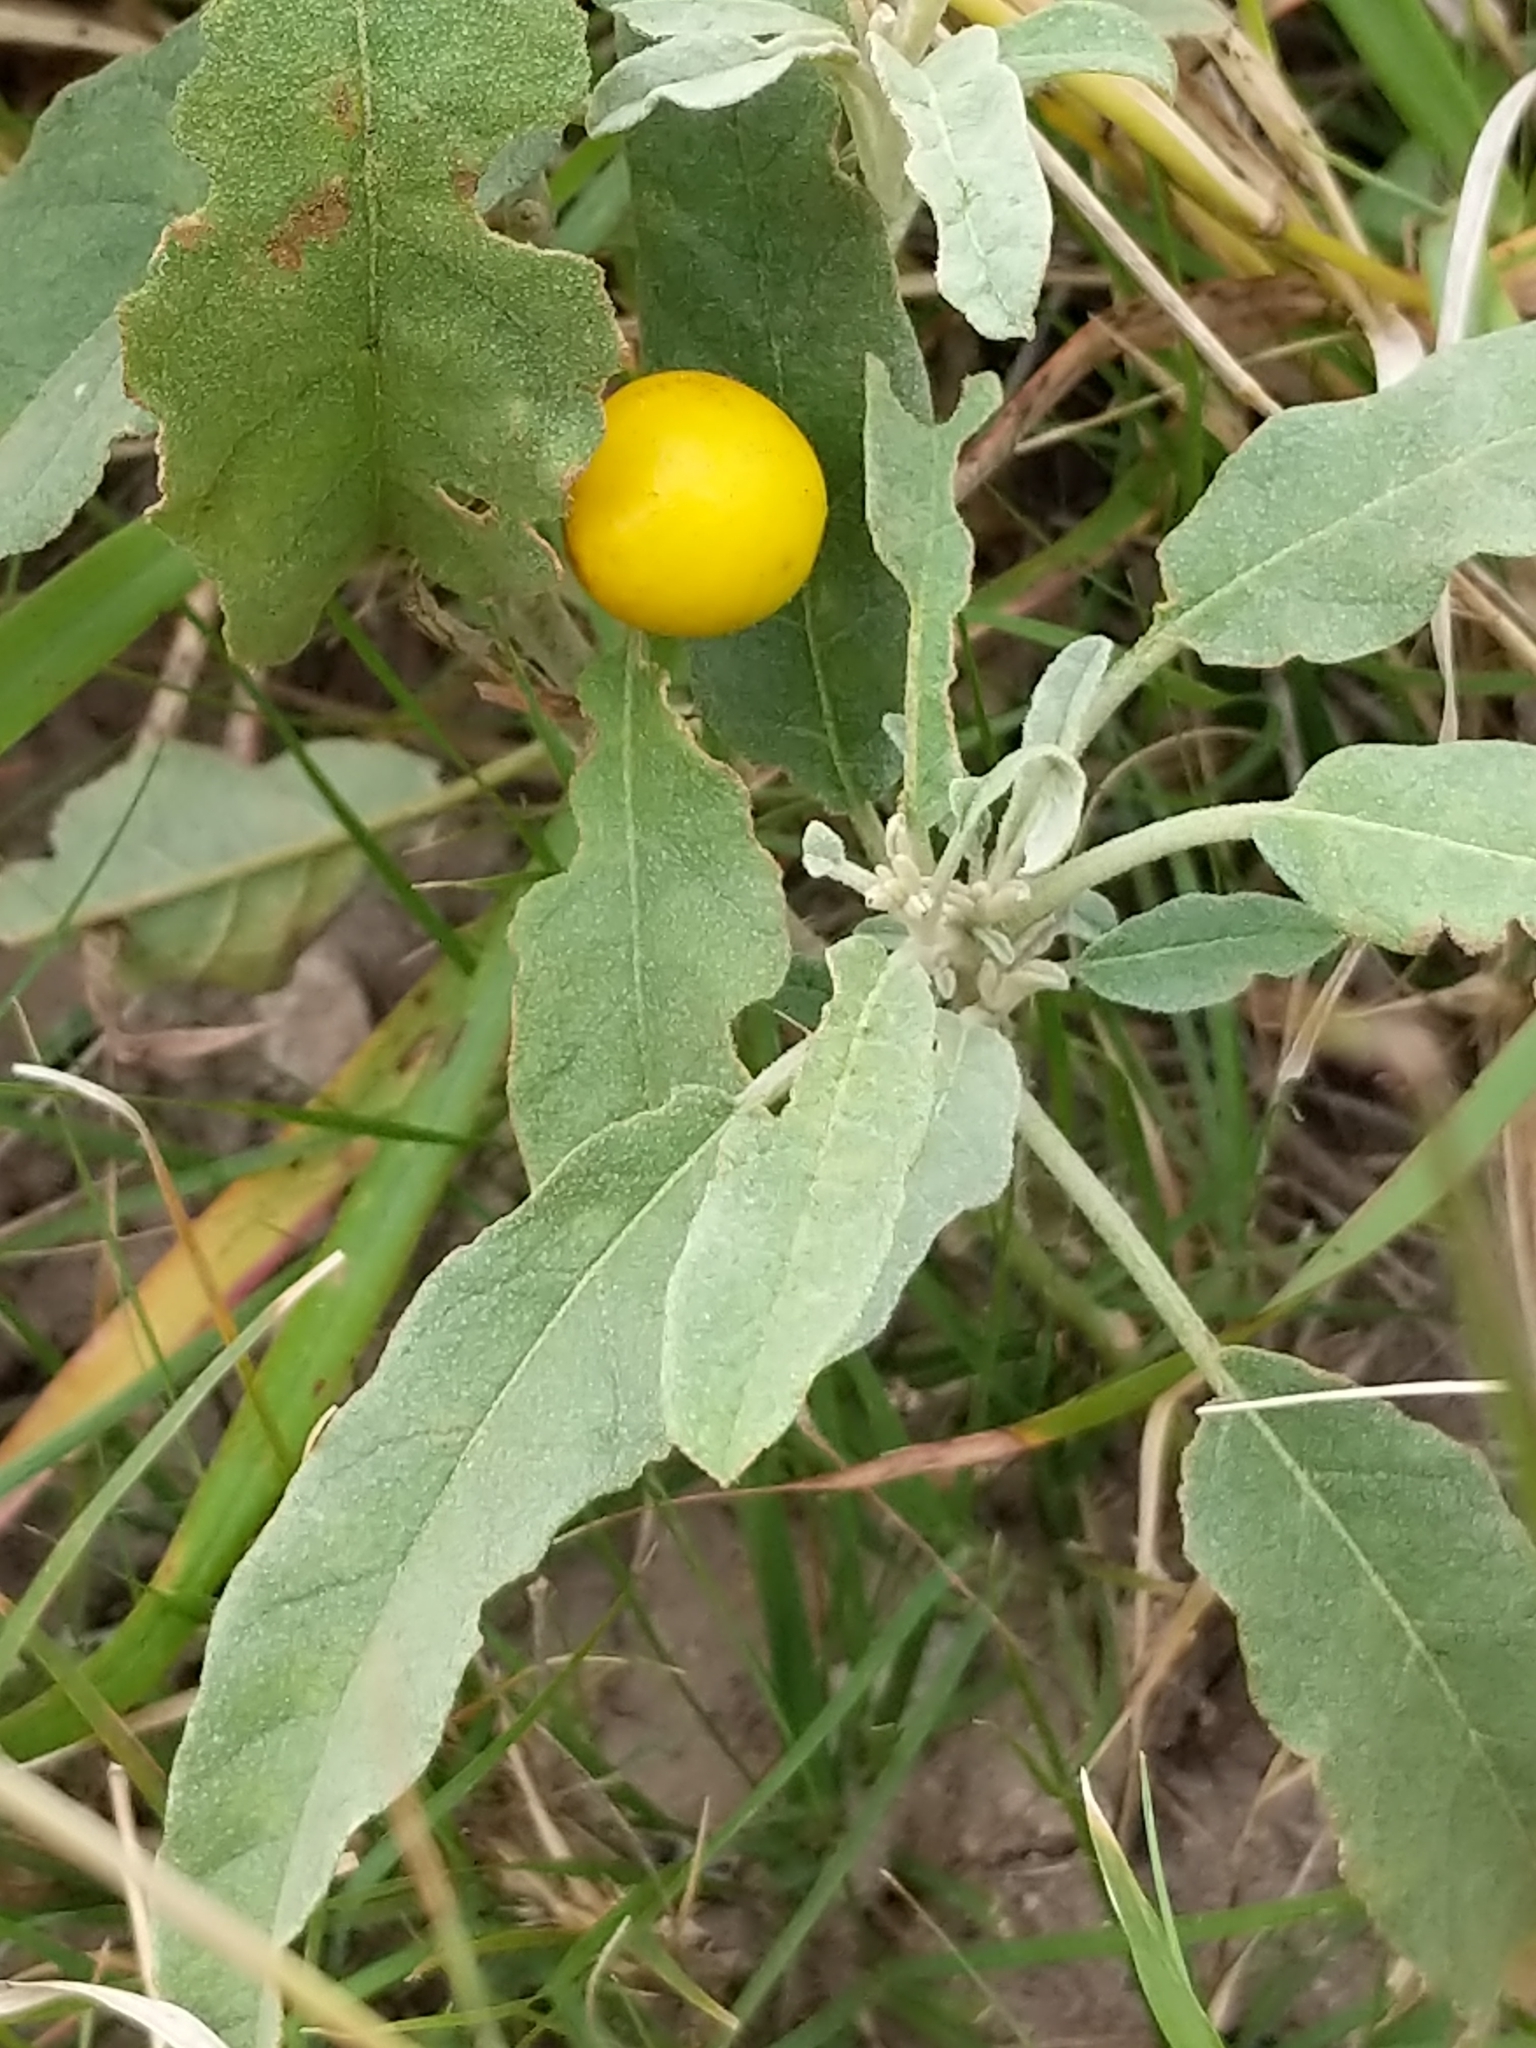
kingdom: Plantae
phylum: Tracheophyta
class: Magnoliopsida
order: Solanales
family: Solanaceae
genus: Solanum
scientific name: Solanum elaeagnifolium
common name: Silverleaf nightshade
